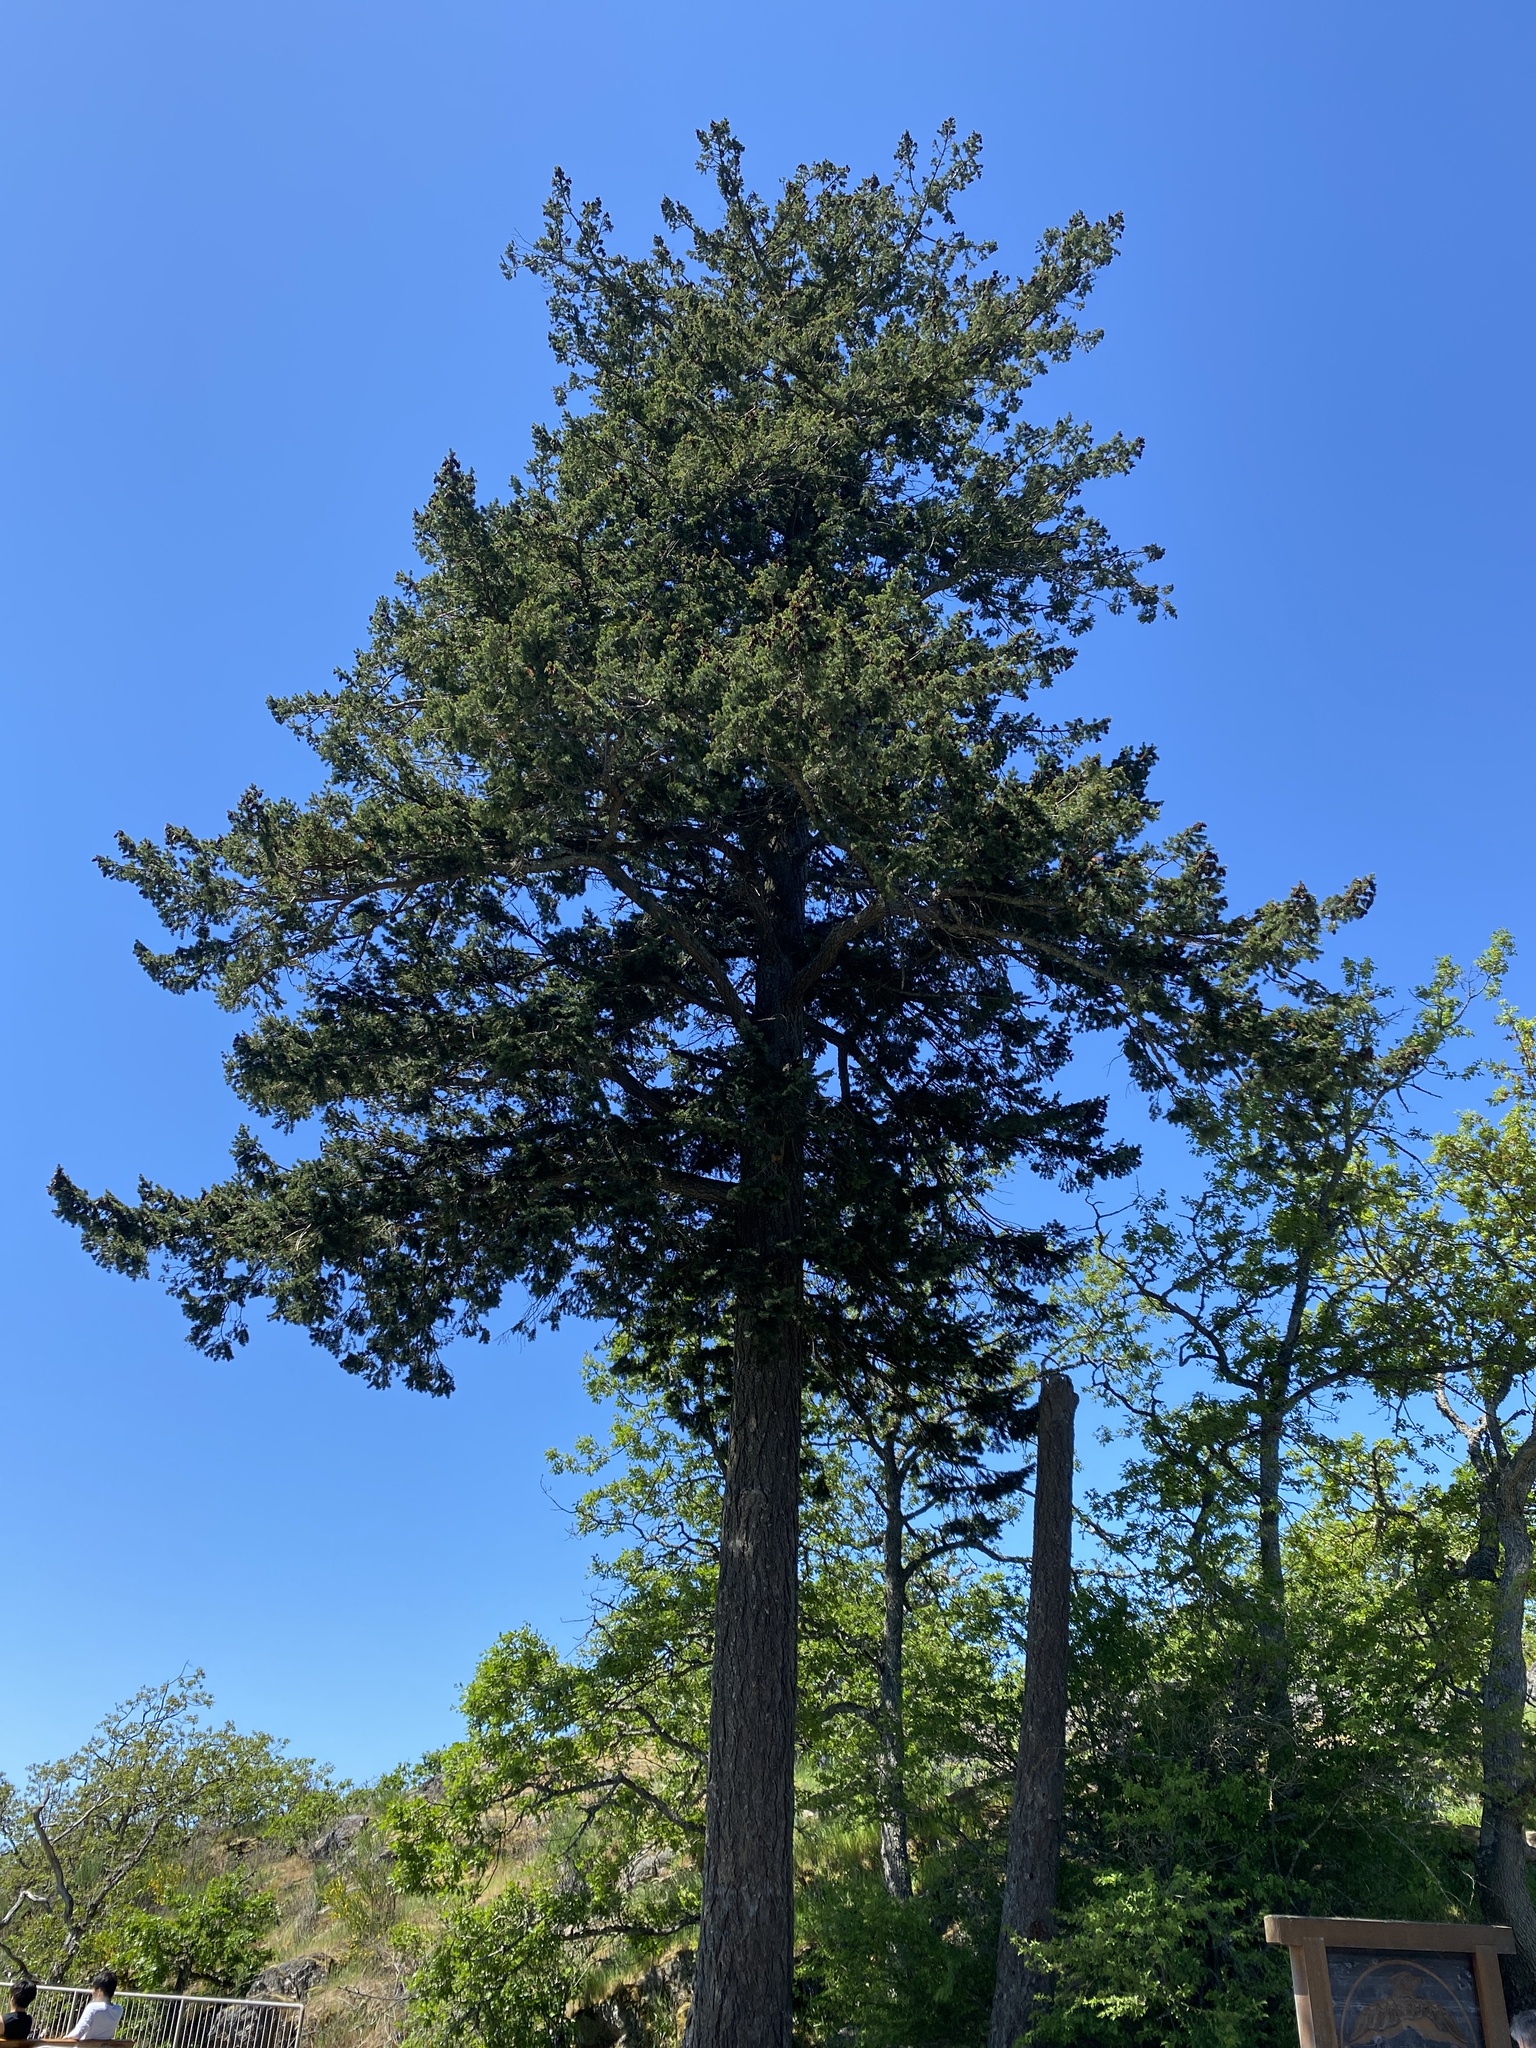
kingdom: Plantae
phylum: Tracheophyta
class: Pinopsida
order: Pinales
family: Pinaceae
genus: Pseudotsuga
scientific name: Pseudotsuga menziesii
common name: Douglas fir
